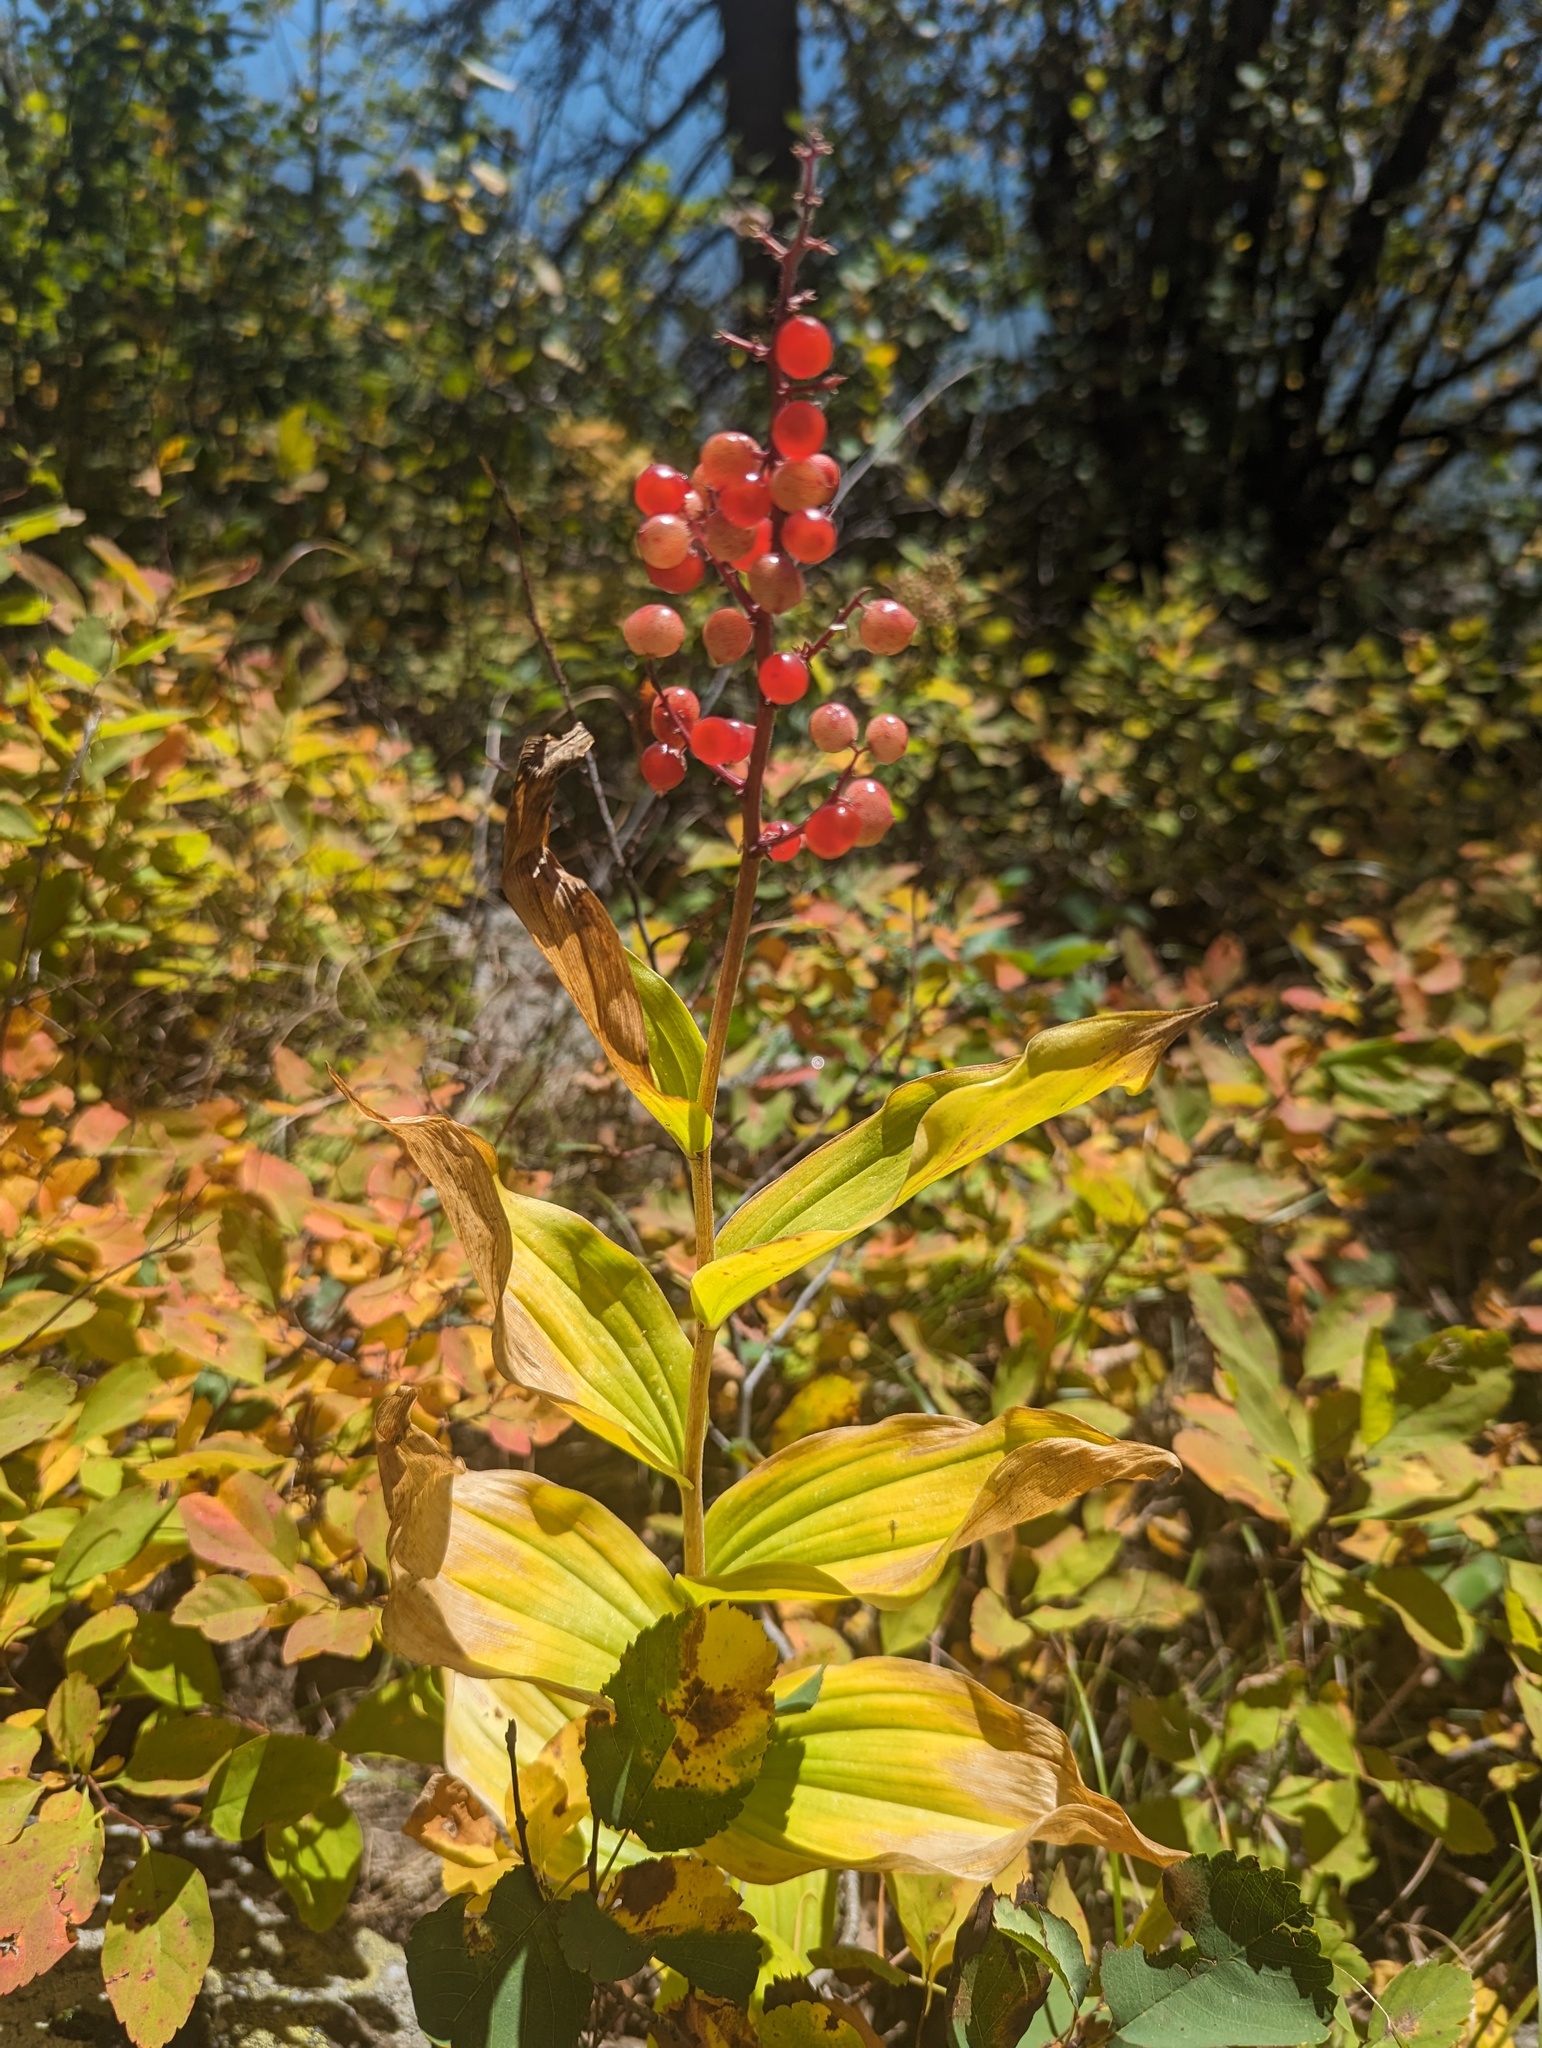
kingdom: Plantae
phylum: Tracheophyta
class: Liliopsida
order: Asparagales
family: Asparagaceae
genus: Maianthemum
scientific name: Maianthemum racemosum
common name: False spikenard
